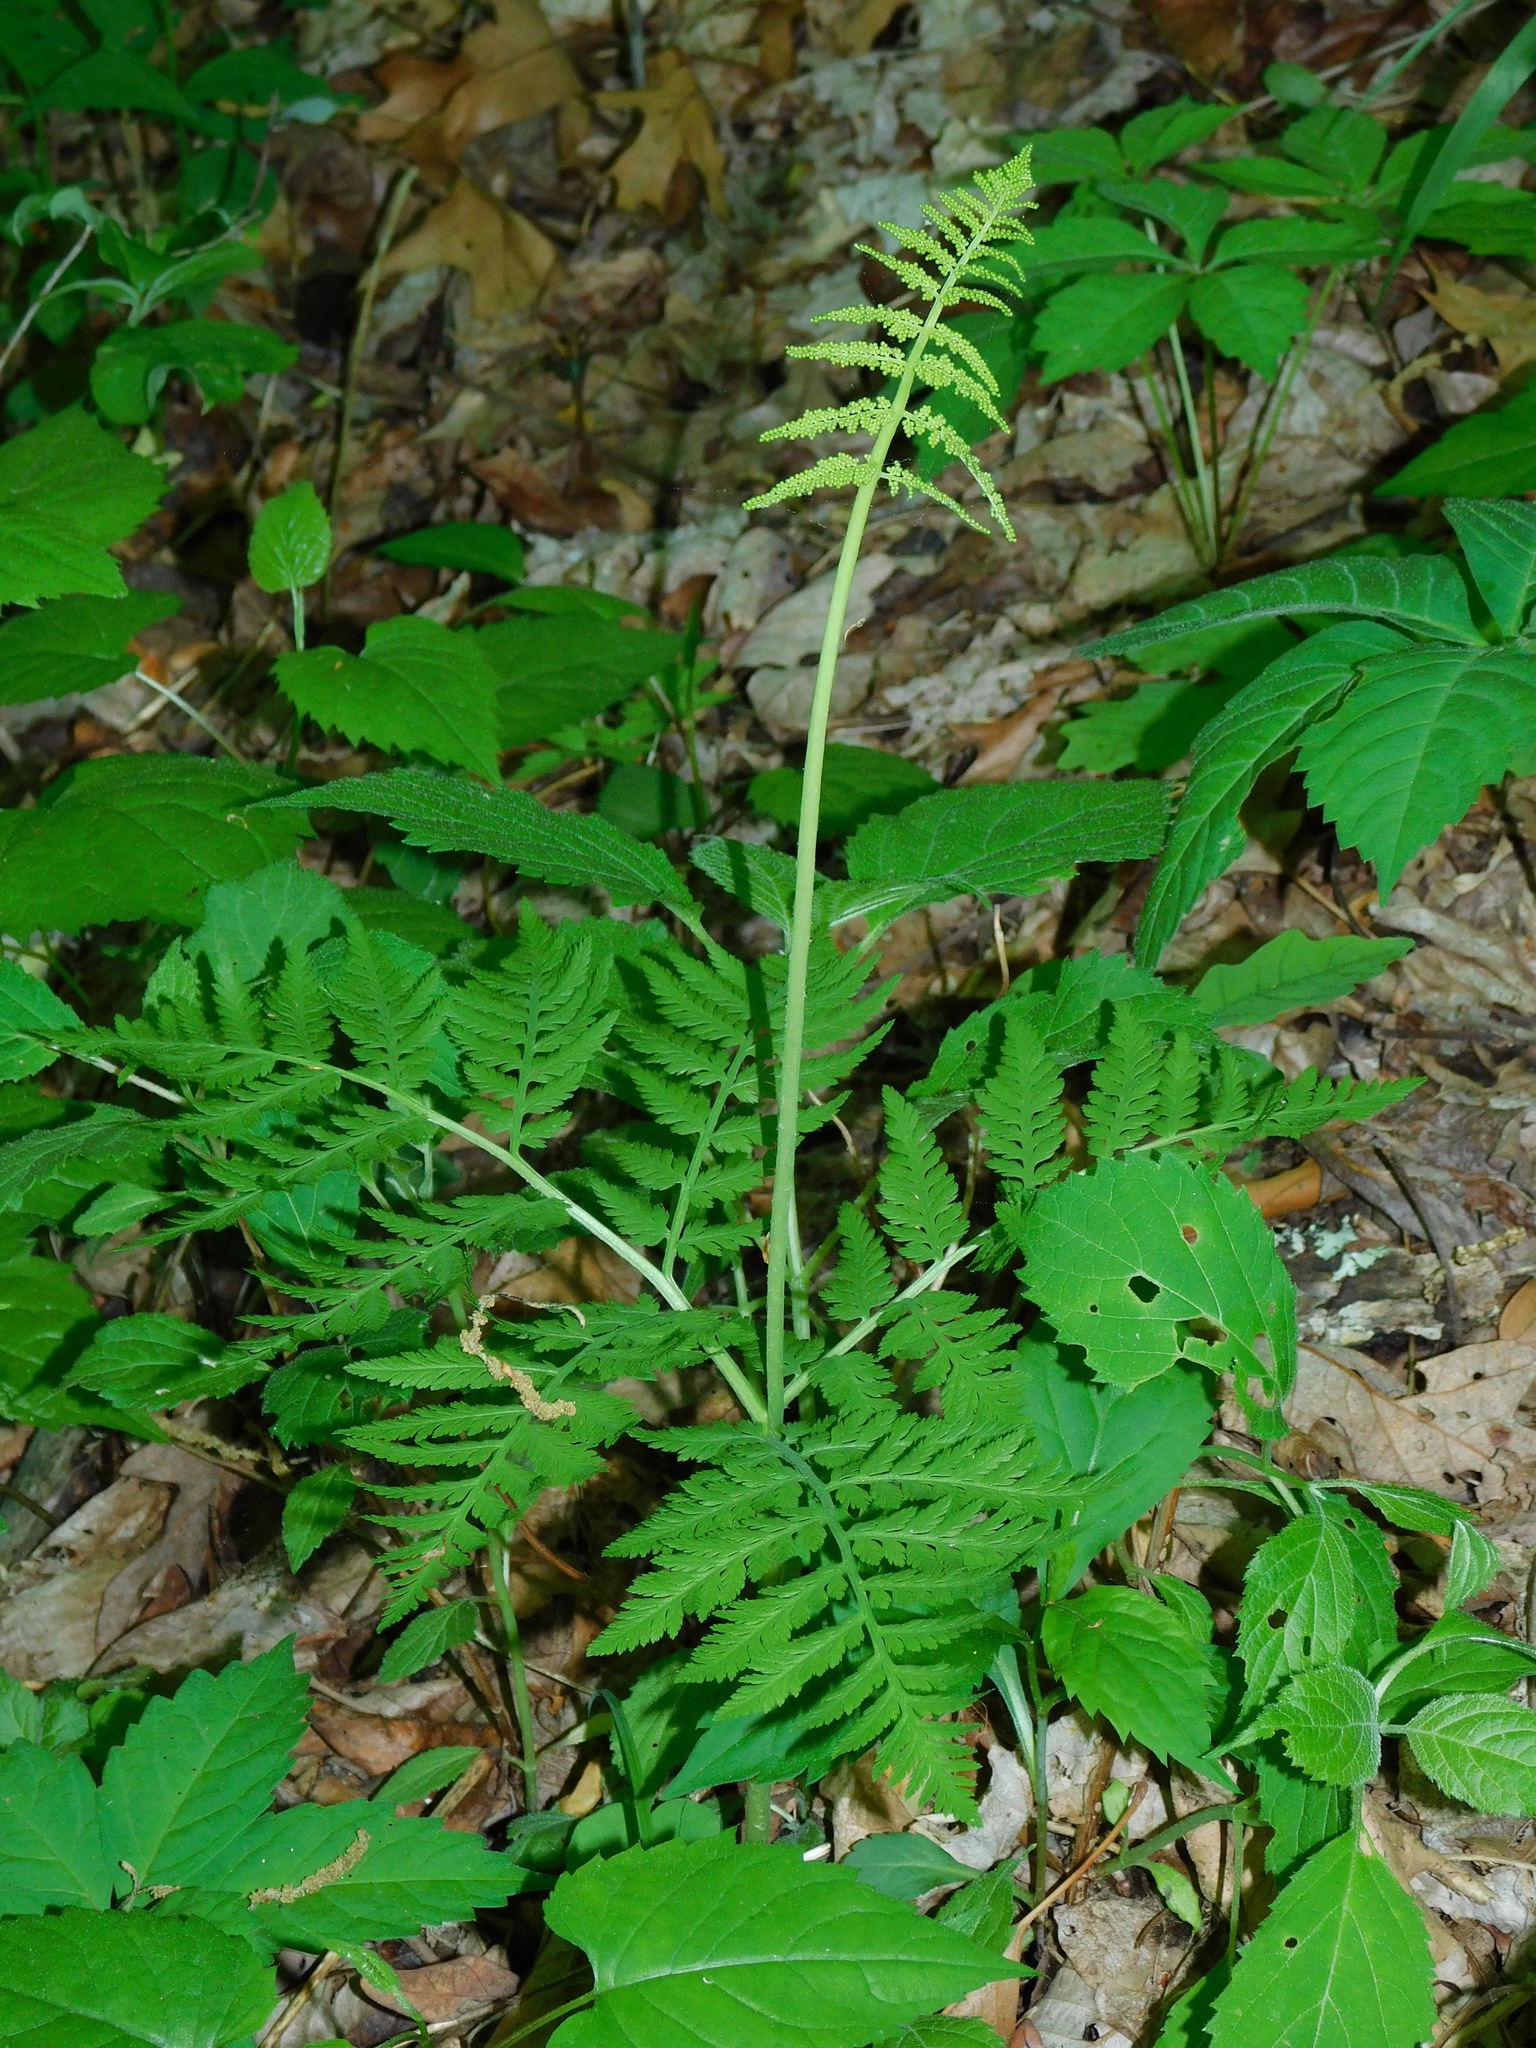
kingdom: Plantae
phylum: Tracheophyta
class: Polypodiopsida
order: Ophioglossales
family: Ophioglossaceae
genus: Botrypus
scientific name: Botrypus virginianus
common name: Common grapefern
